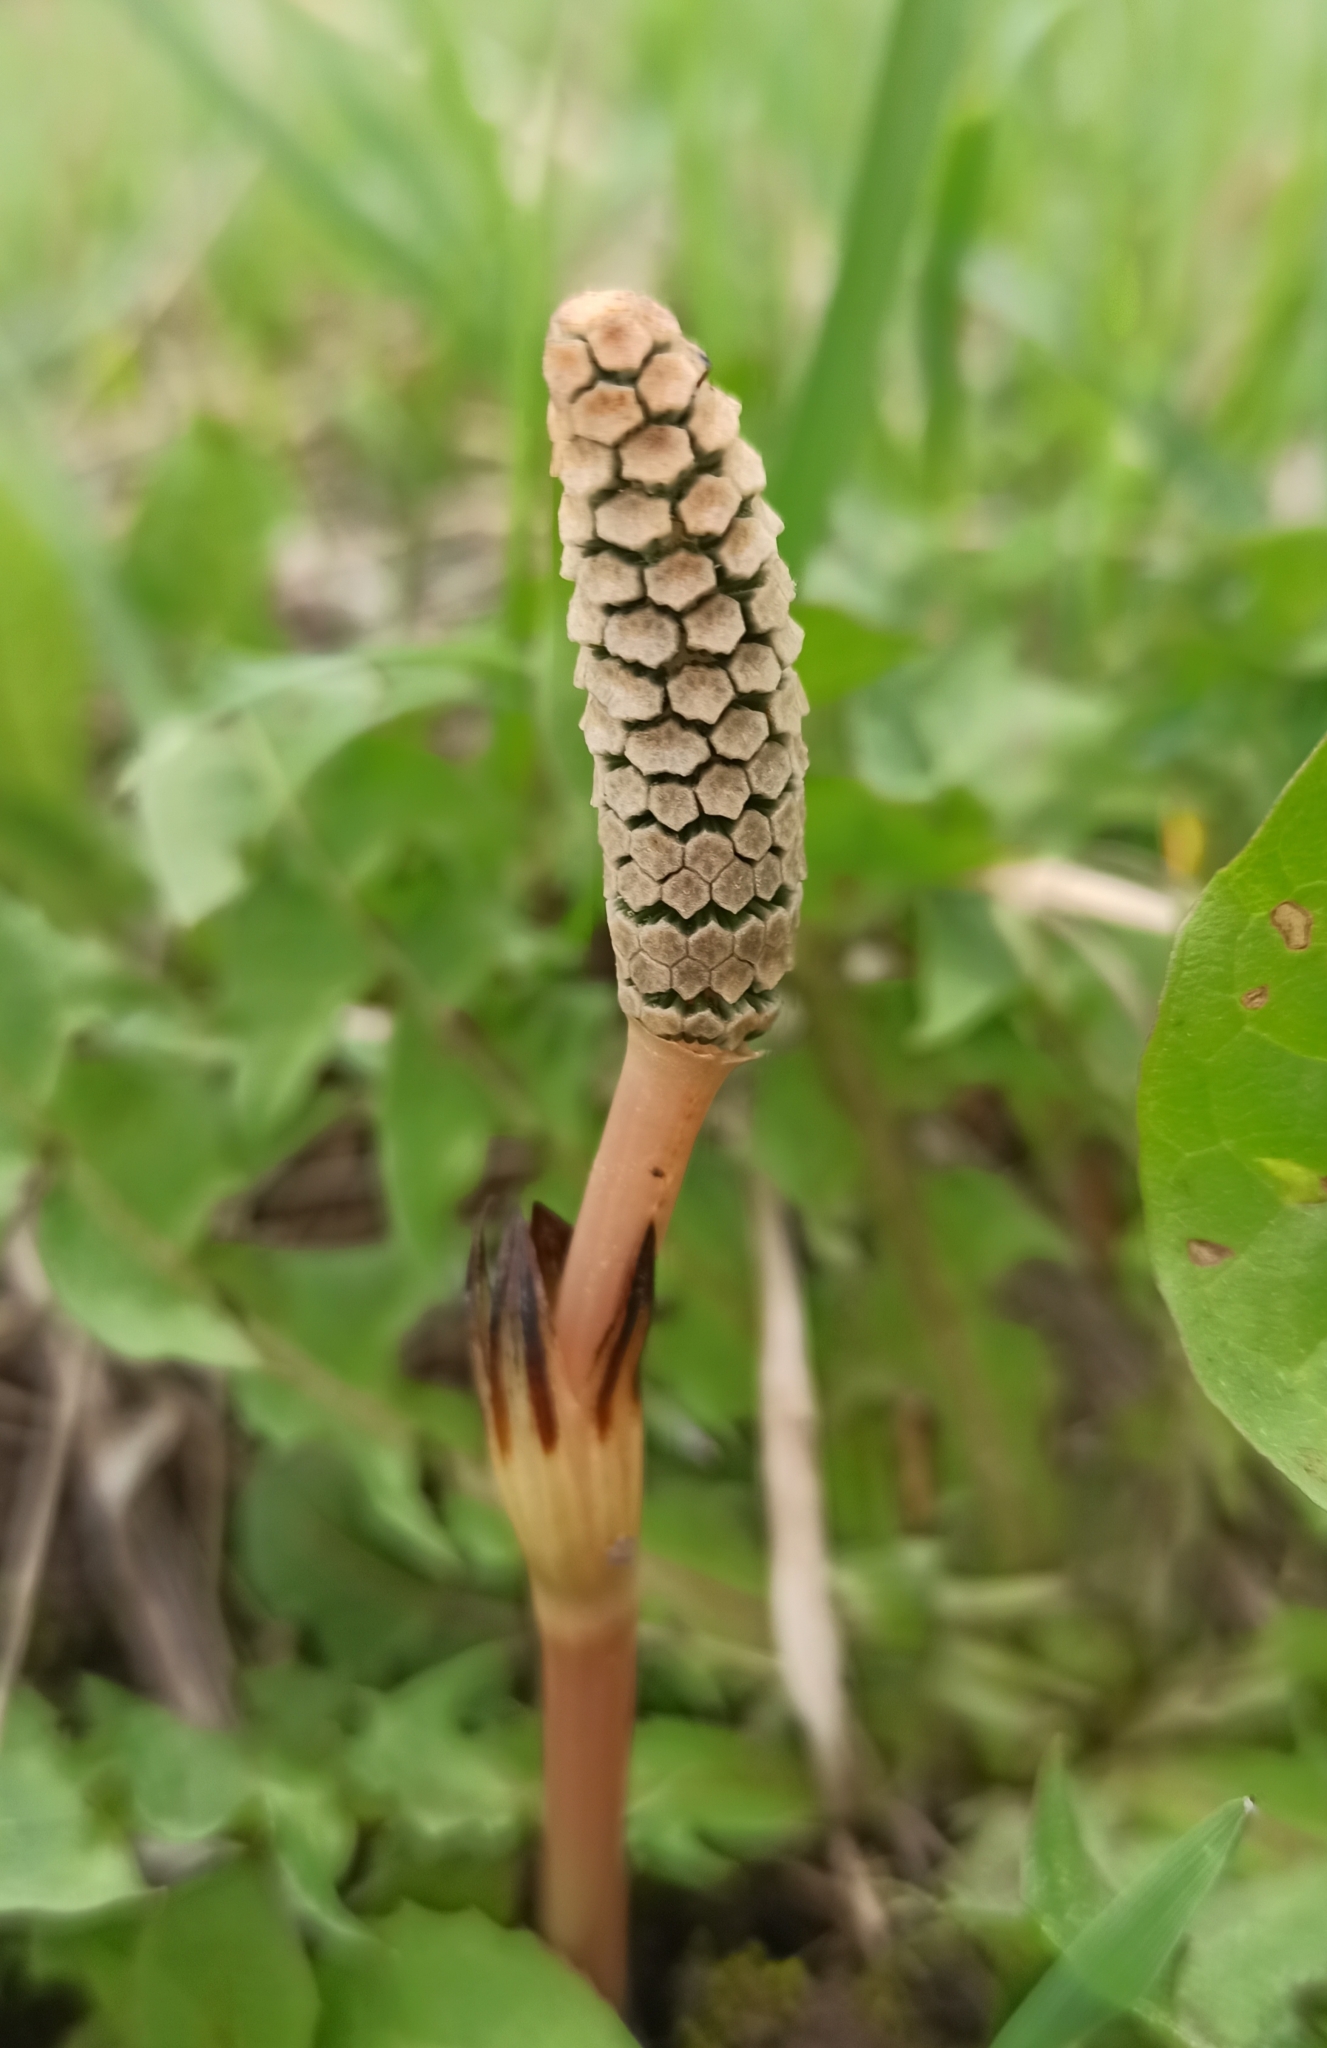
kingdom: Plantae
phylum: Tracheophyta
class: Polypodiopsida
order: Equisetales
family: Equisetaceae
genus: Equisetum
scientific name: Equisetum arvense
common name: Field horsetail
